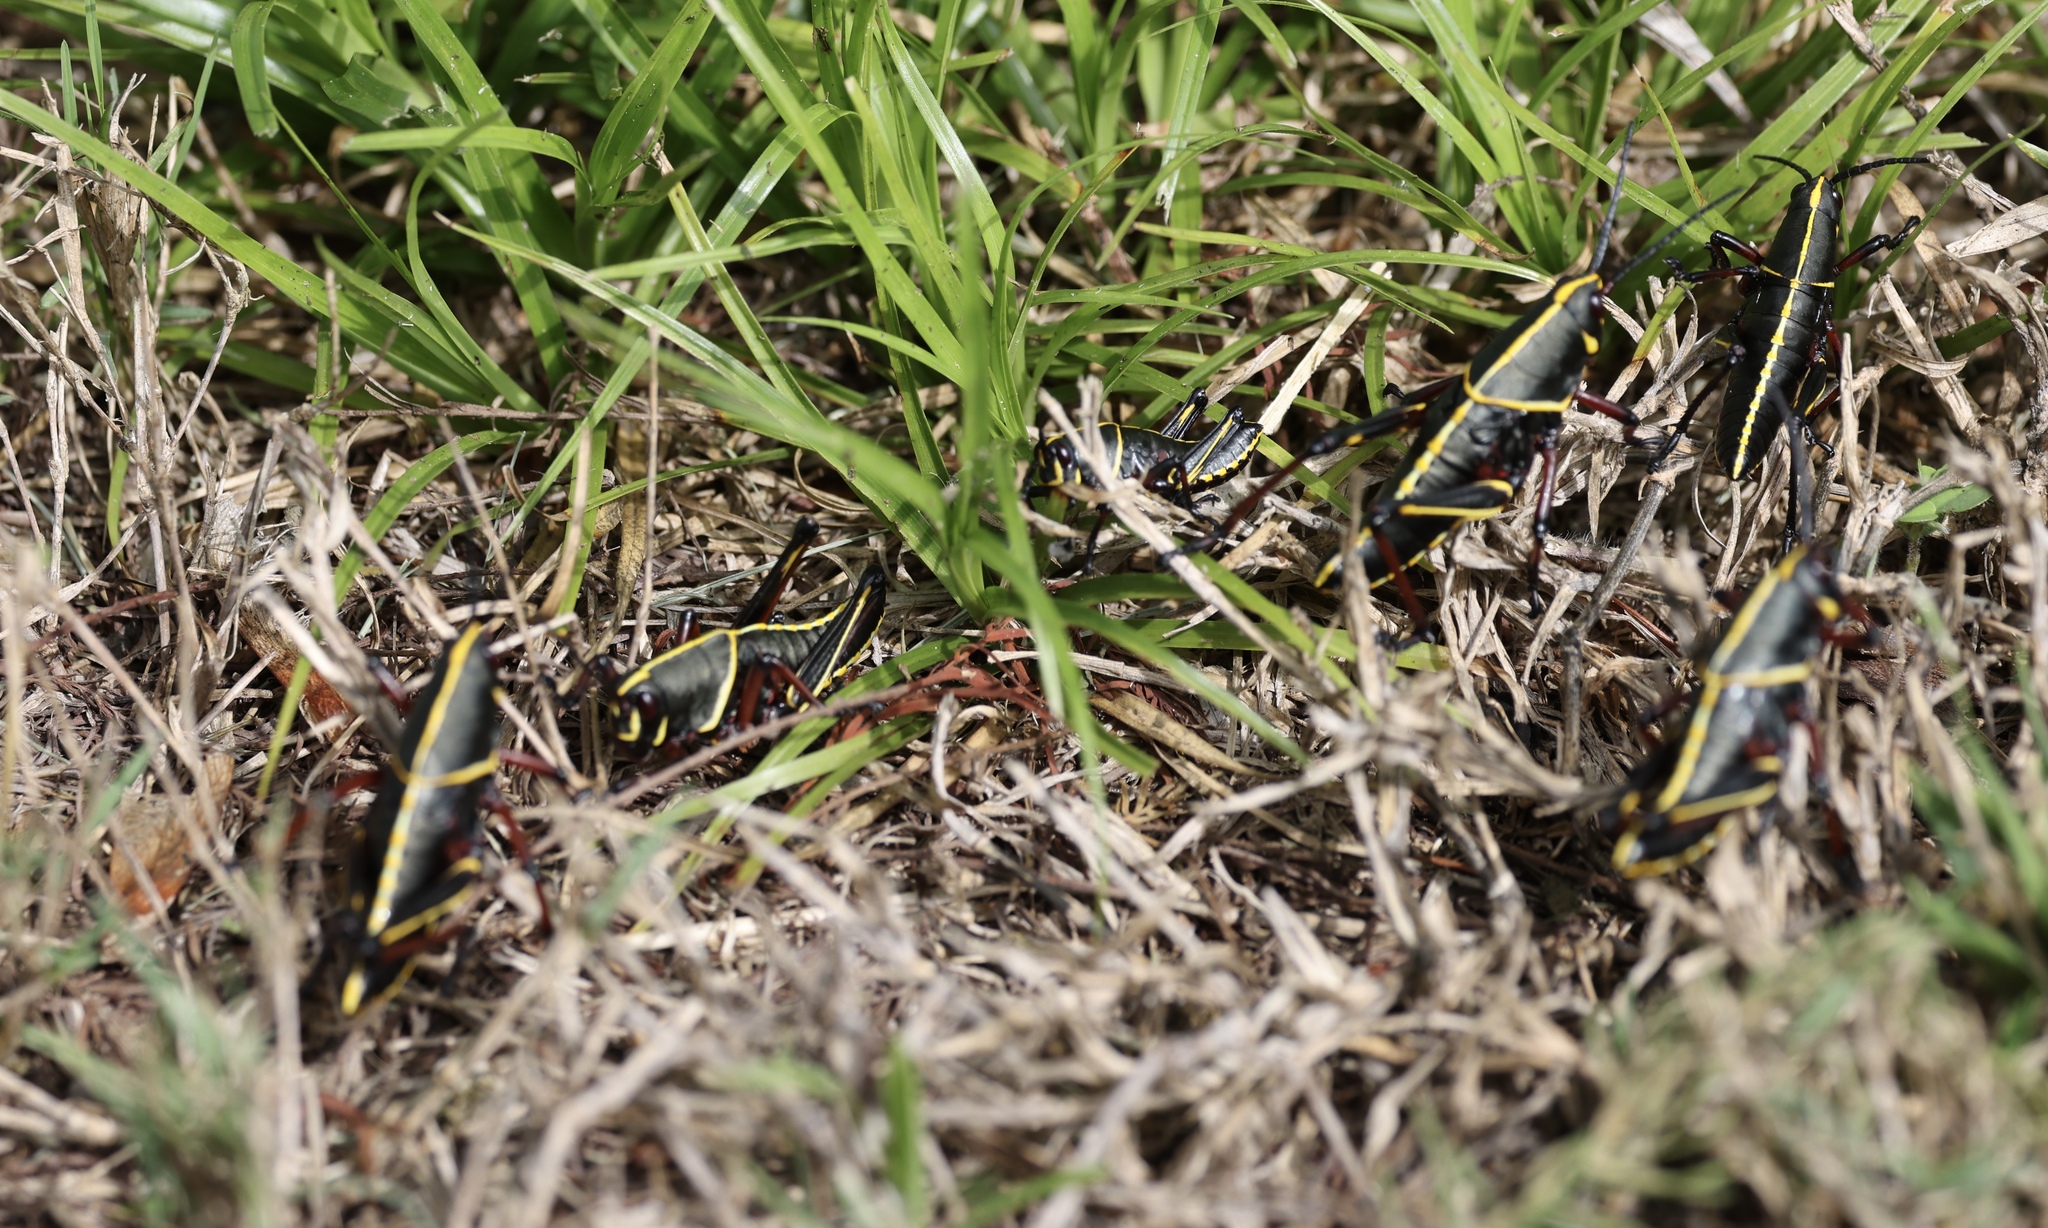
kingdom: Animalia
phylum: Arthropoda
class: Insecta
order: Orthoptera
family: Romaleidae
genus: Romalea
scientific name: Romalea microptera
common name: Eastern lubber grasshopper
